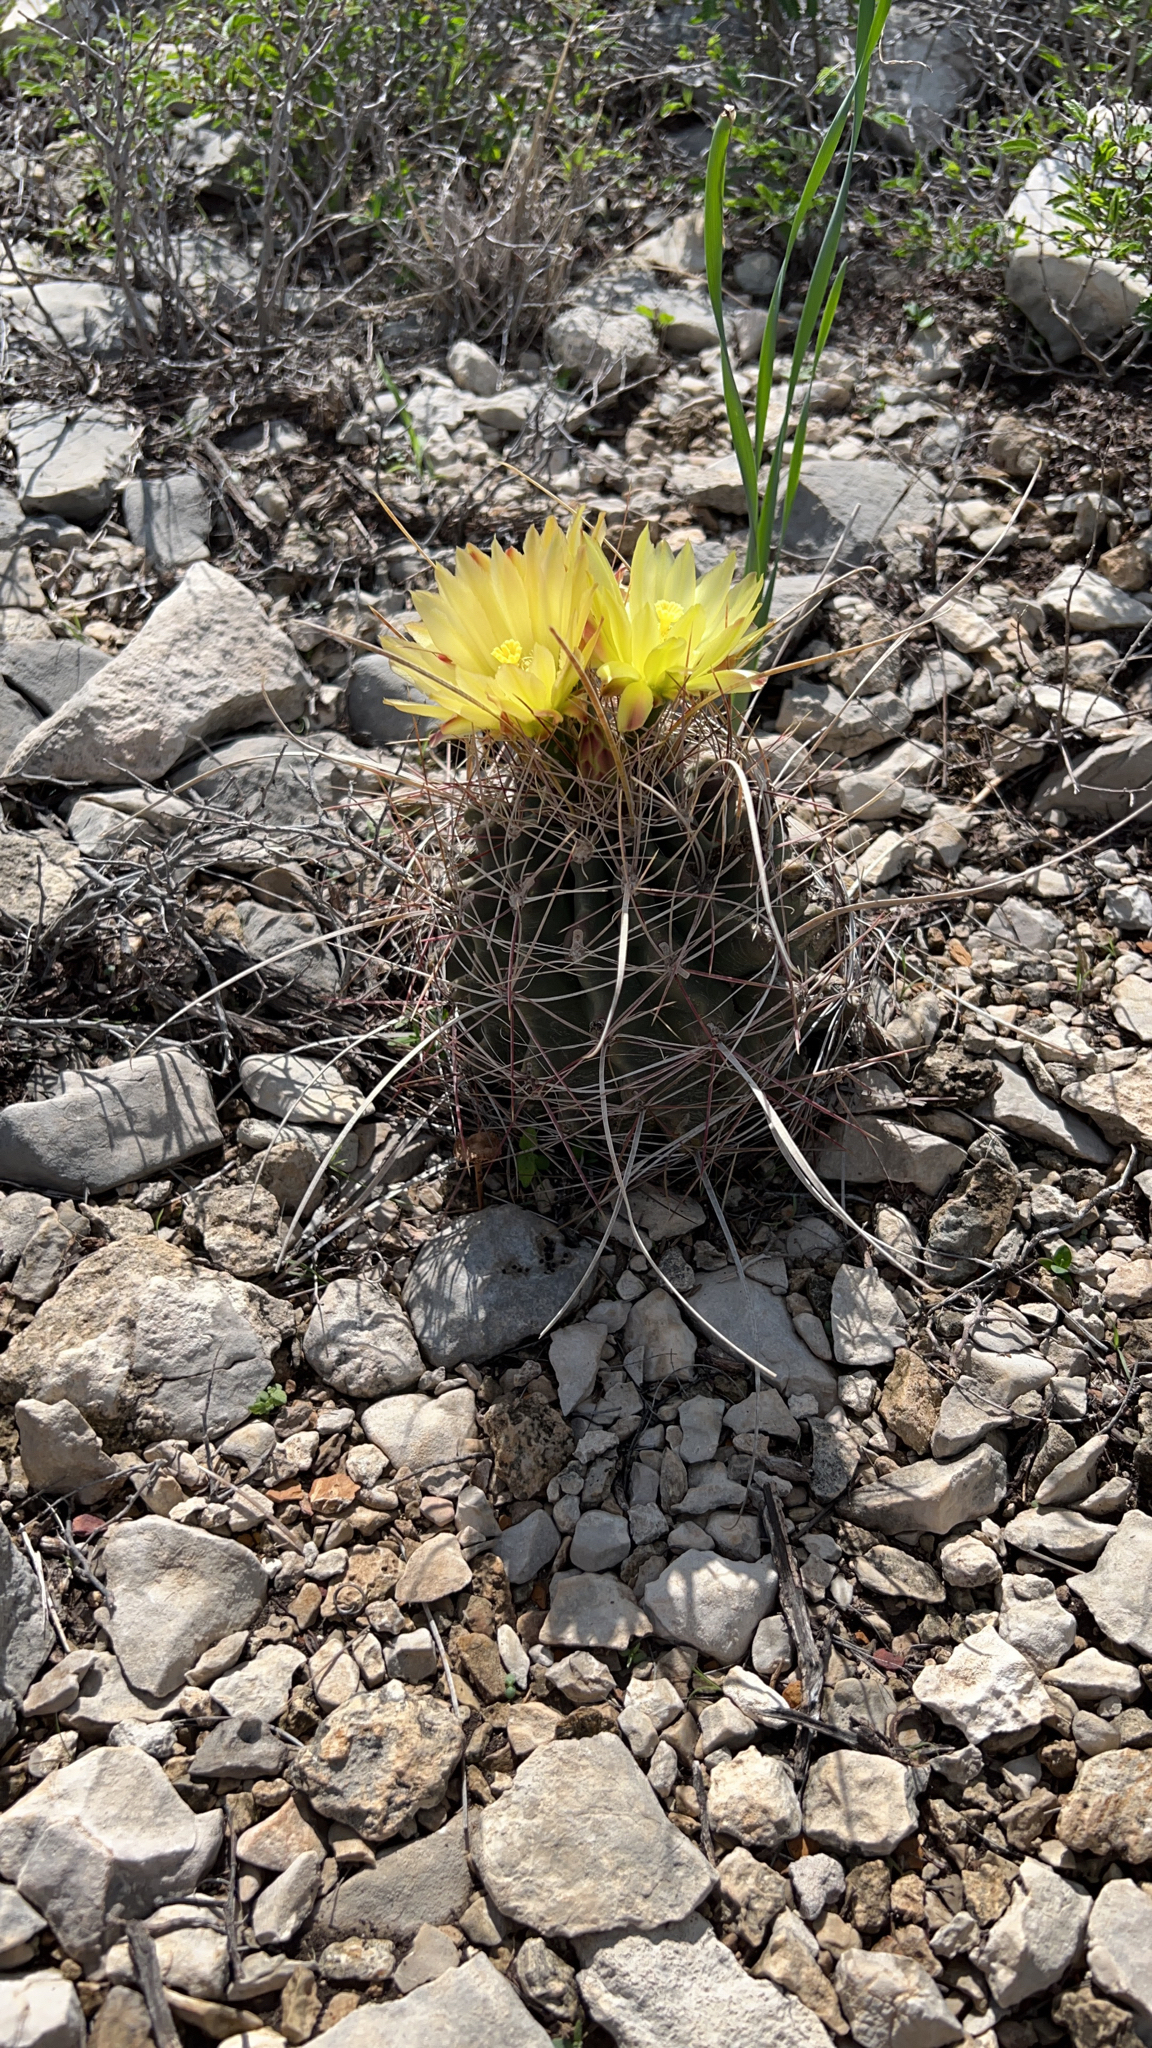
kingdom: Plantae
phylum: Tracheophyta
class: Magnoliopsida
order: Caryophyllales
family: Cactaceae
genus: Bisnaga
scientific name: Bisnaga hamatacantha
